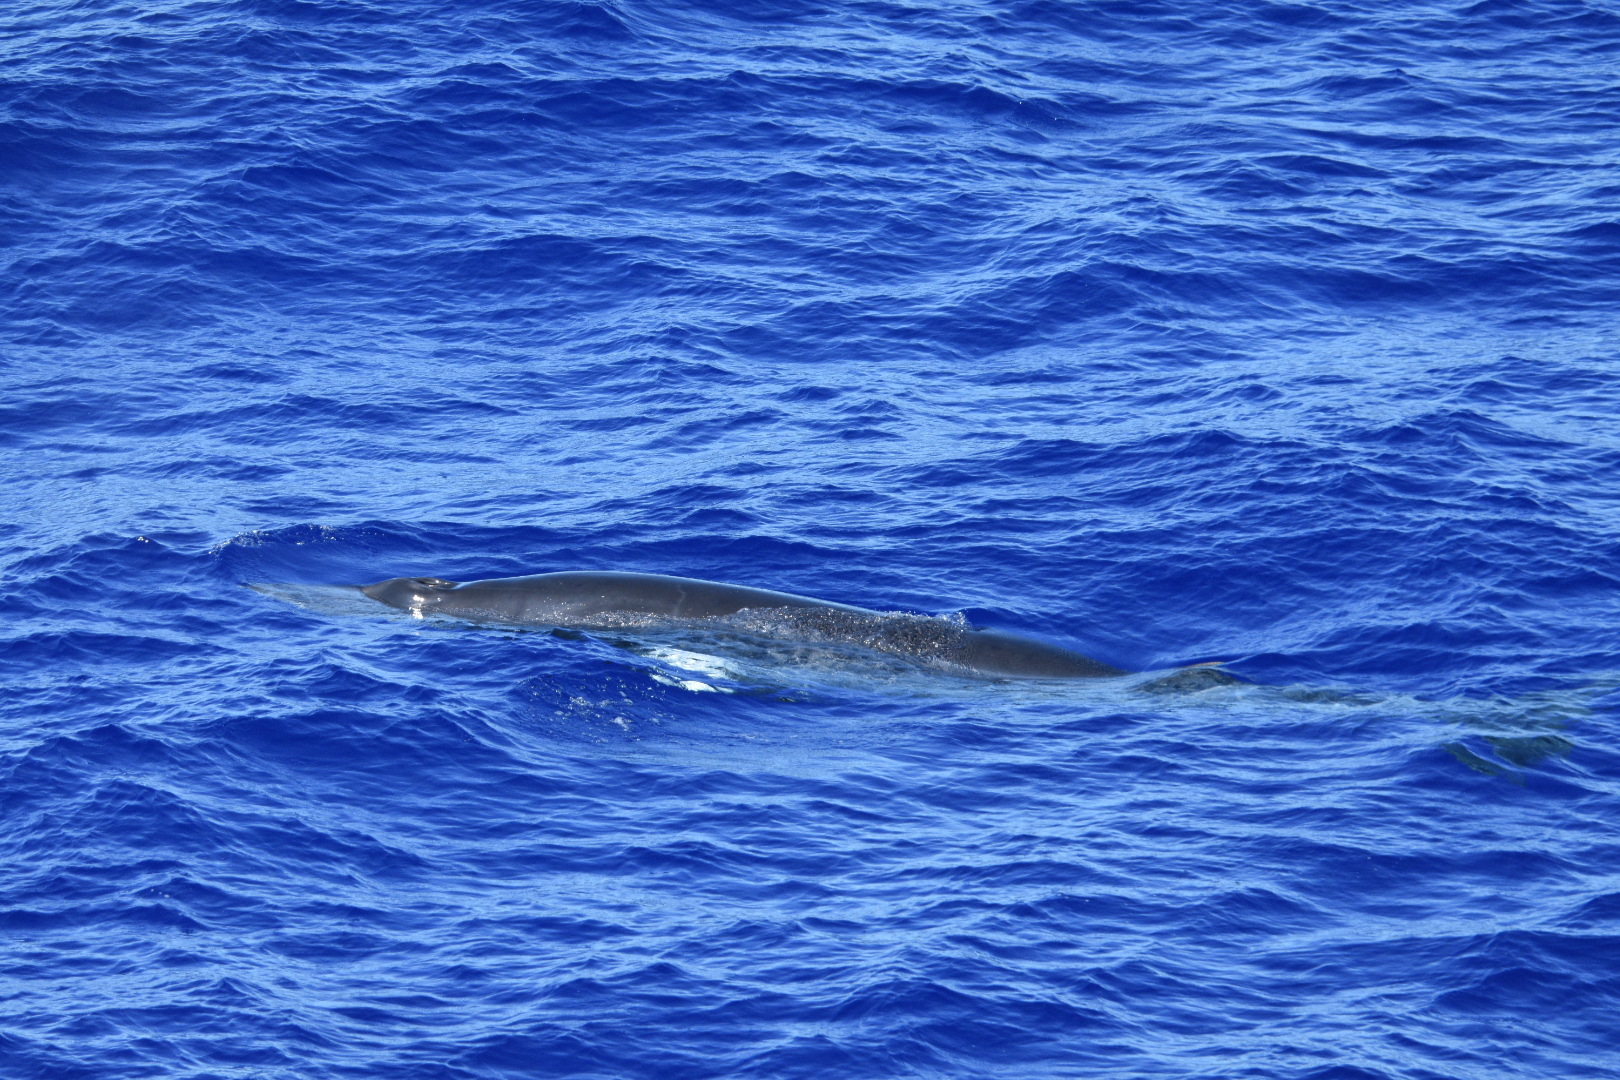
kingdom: Animalia
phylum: Chordata
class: Mammalia
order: Cetacea
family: Balaenopteridae
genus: Balaenoptera
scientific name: Balaenoptera acutorostrata
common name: Common minke whale
